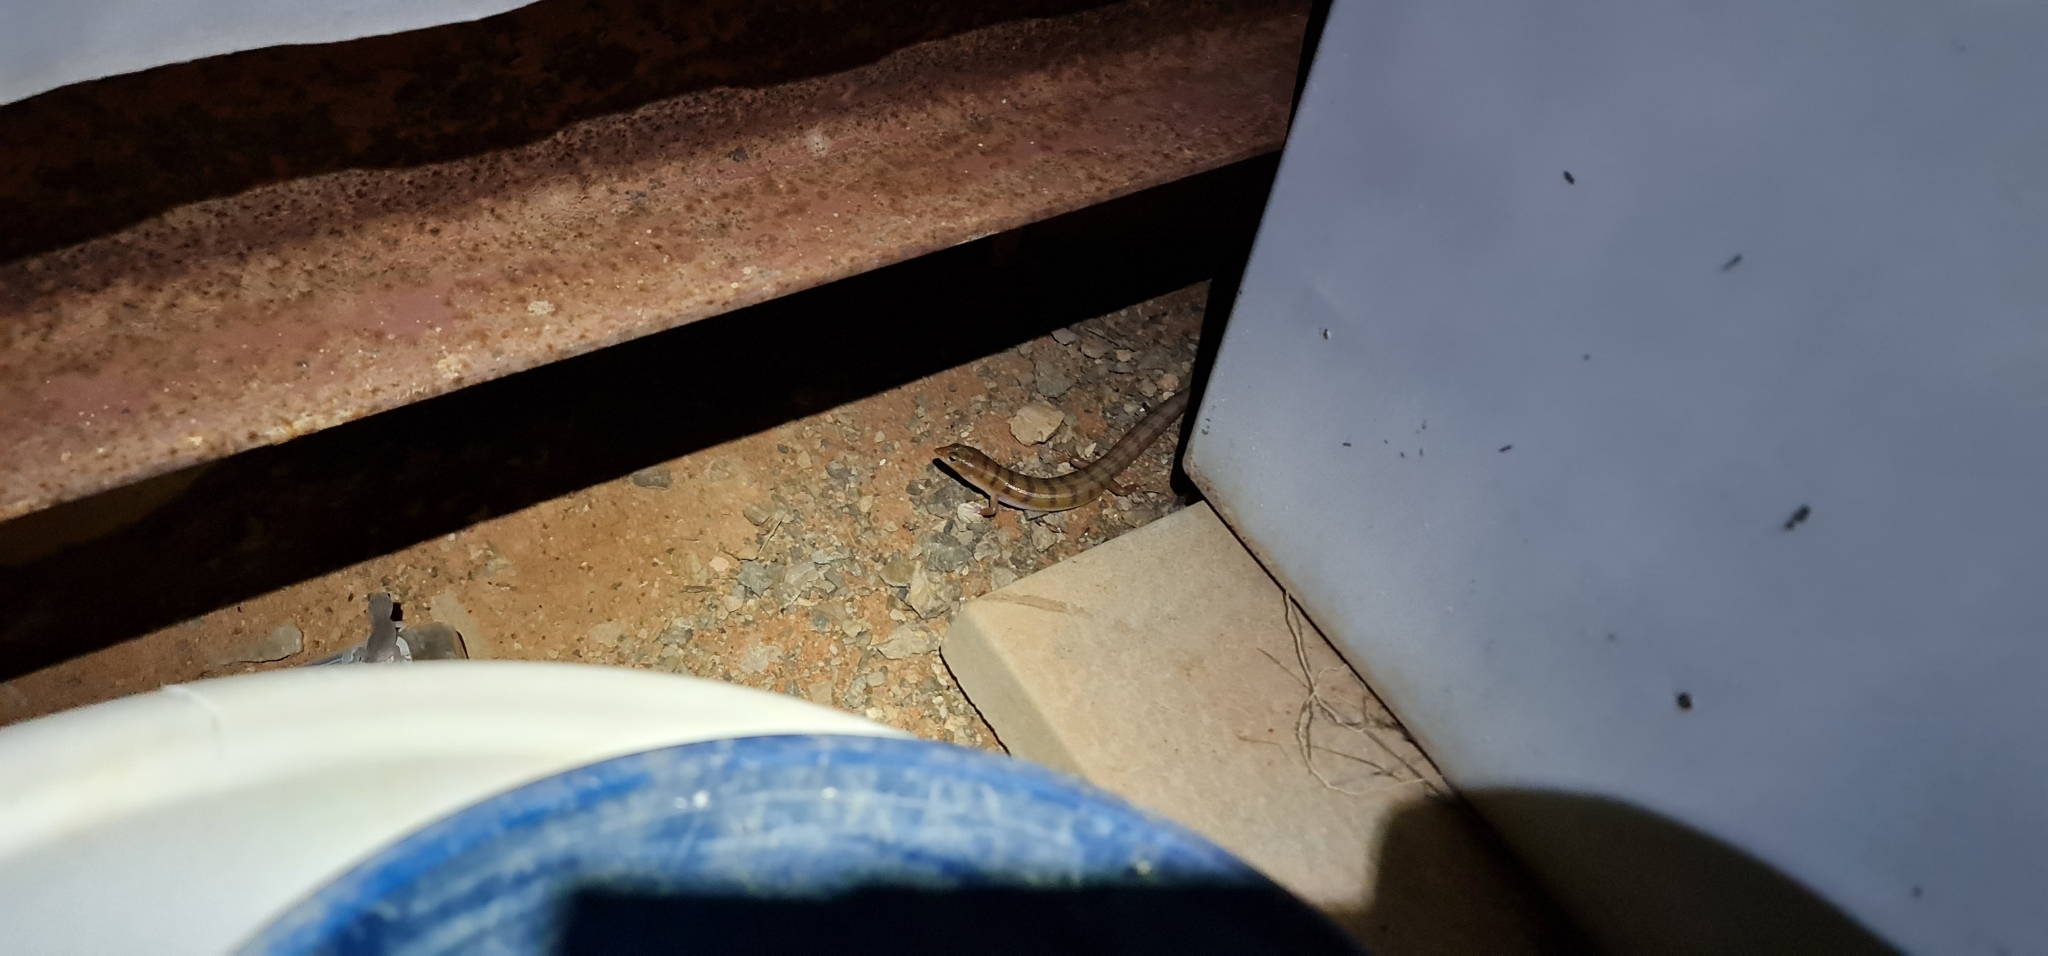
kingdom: Animalia
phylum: Chordata
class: Squamata
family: Scincidae
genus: Eremiascincus
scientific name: Eremiascincus richardsonii
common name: Broad banded sand swimmer
